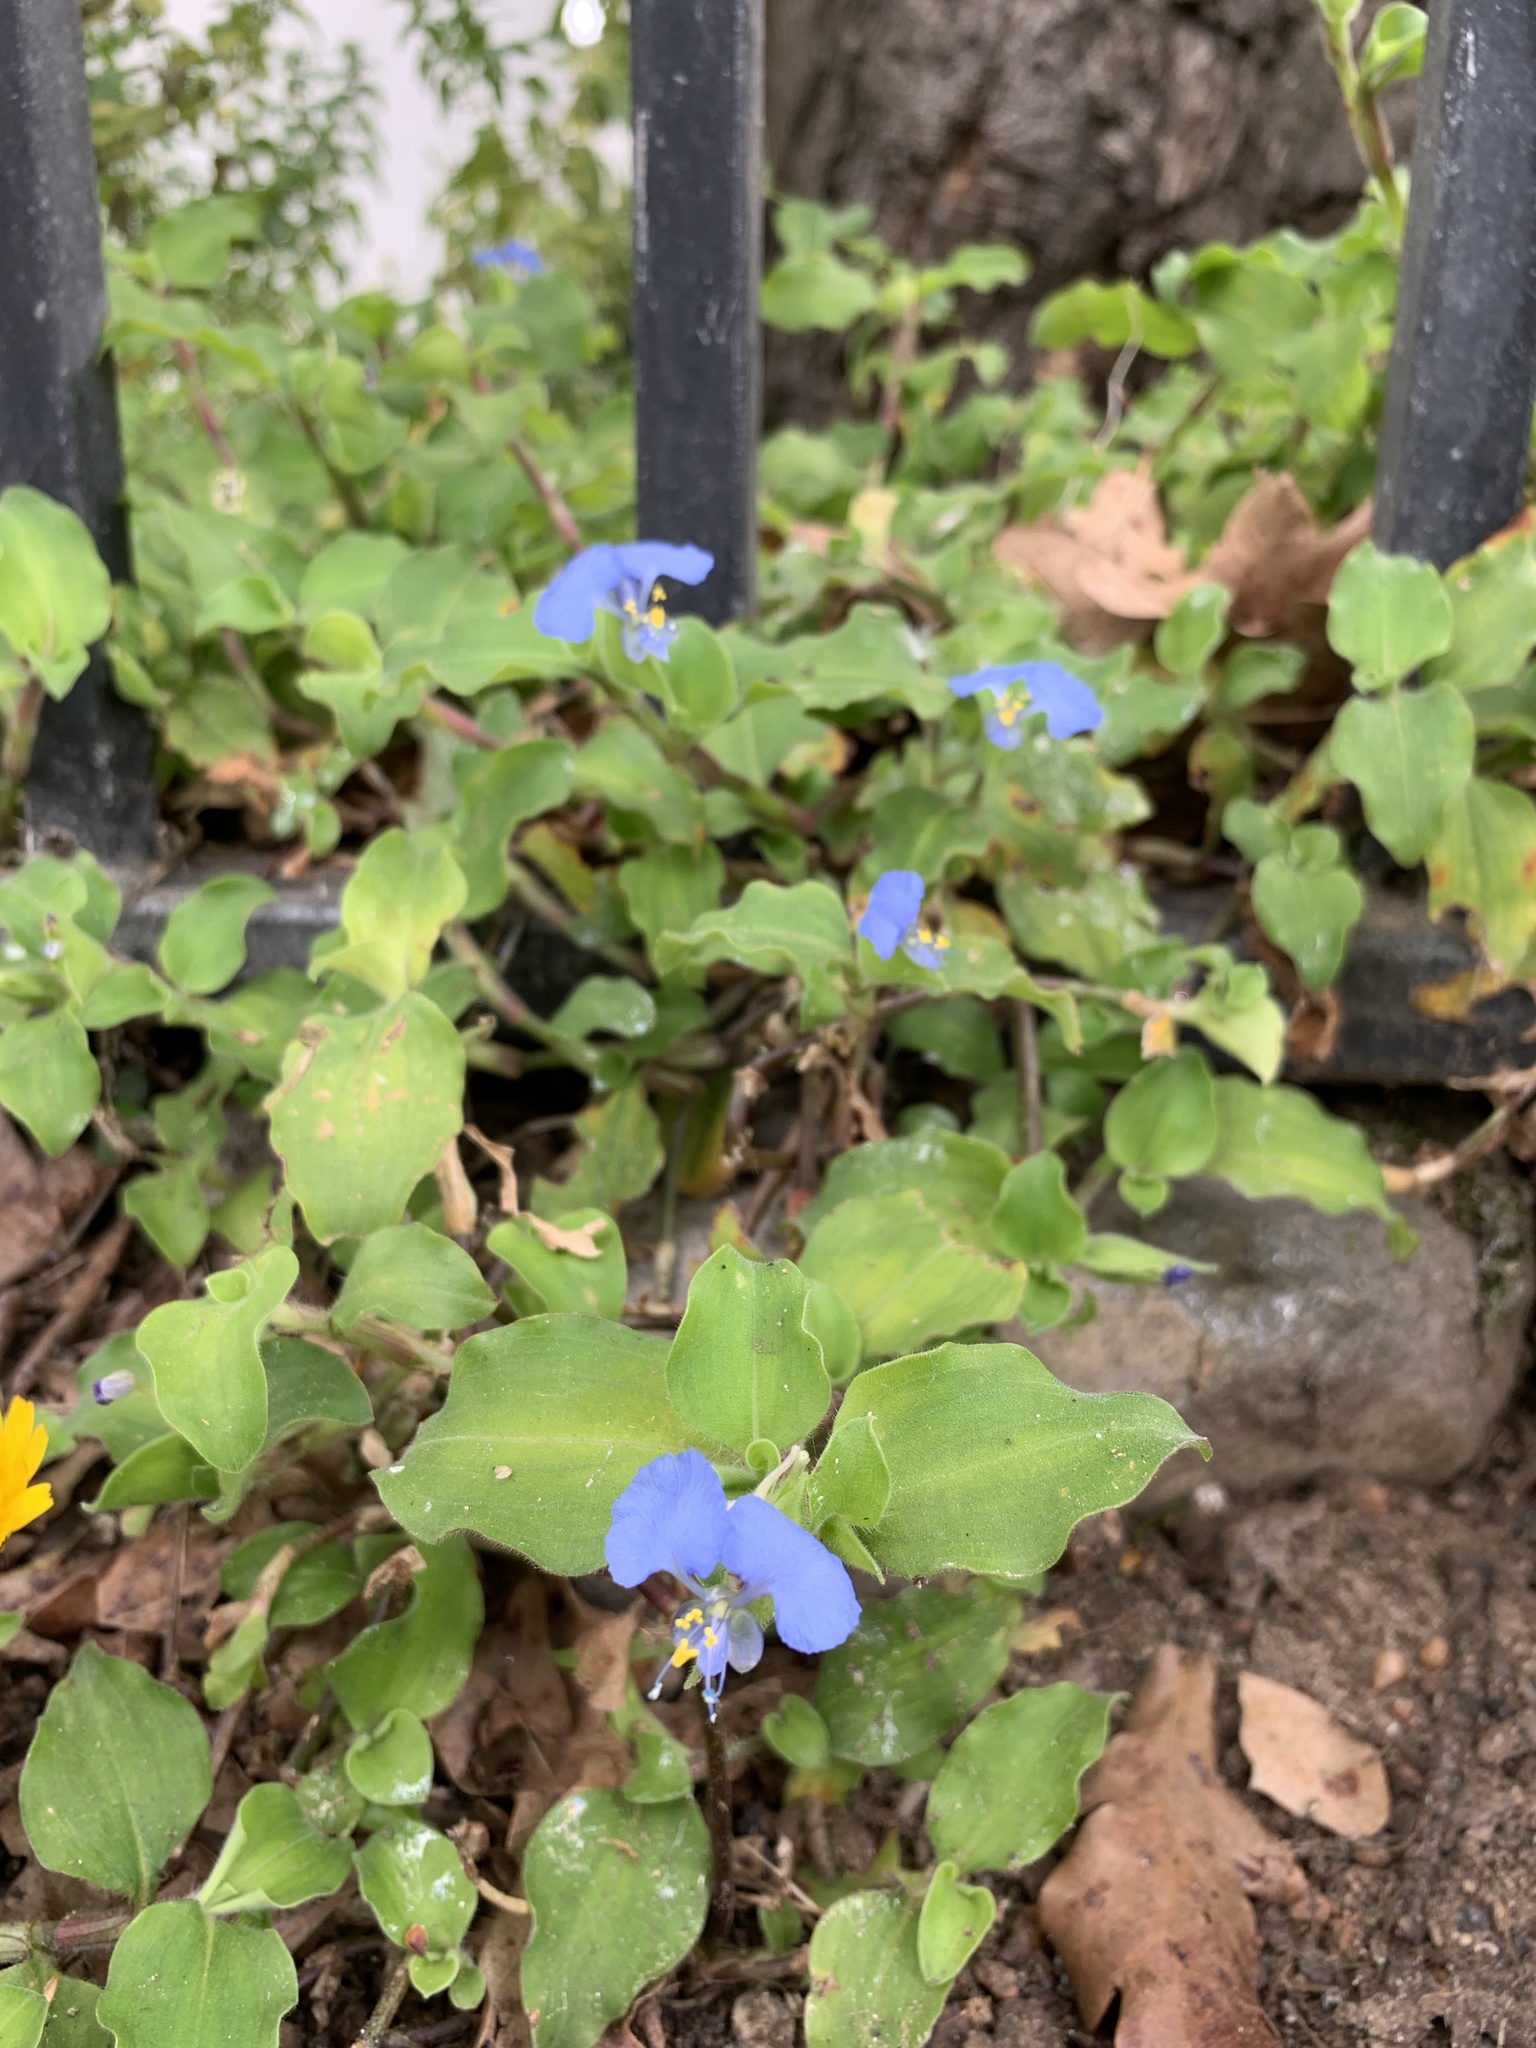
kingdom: Plantae
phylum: Tracheophyta
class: Liliopsida
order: Commelinales
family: Commelinaceae
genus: Commelina
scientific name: Commelina benghalensis
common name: Jio
